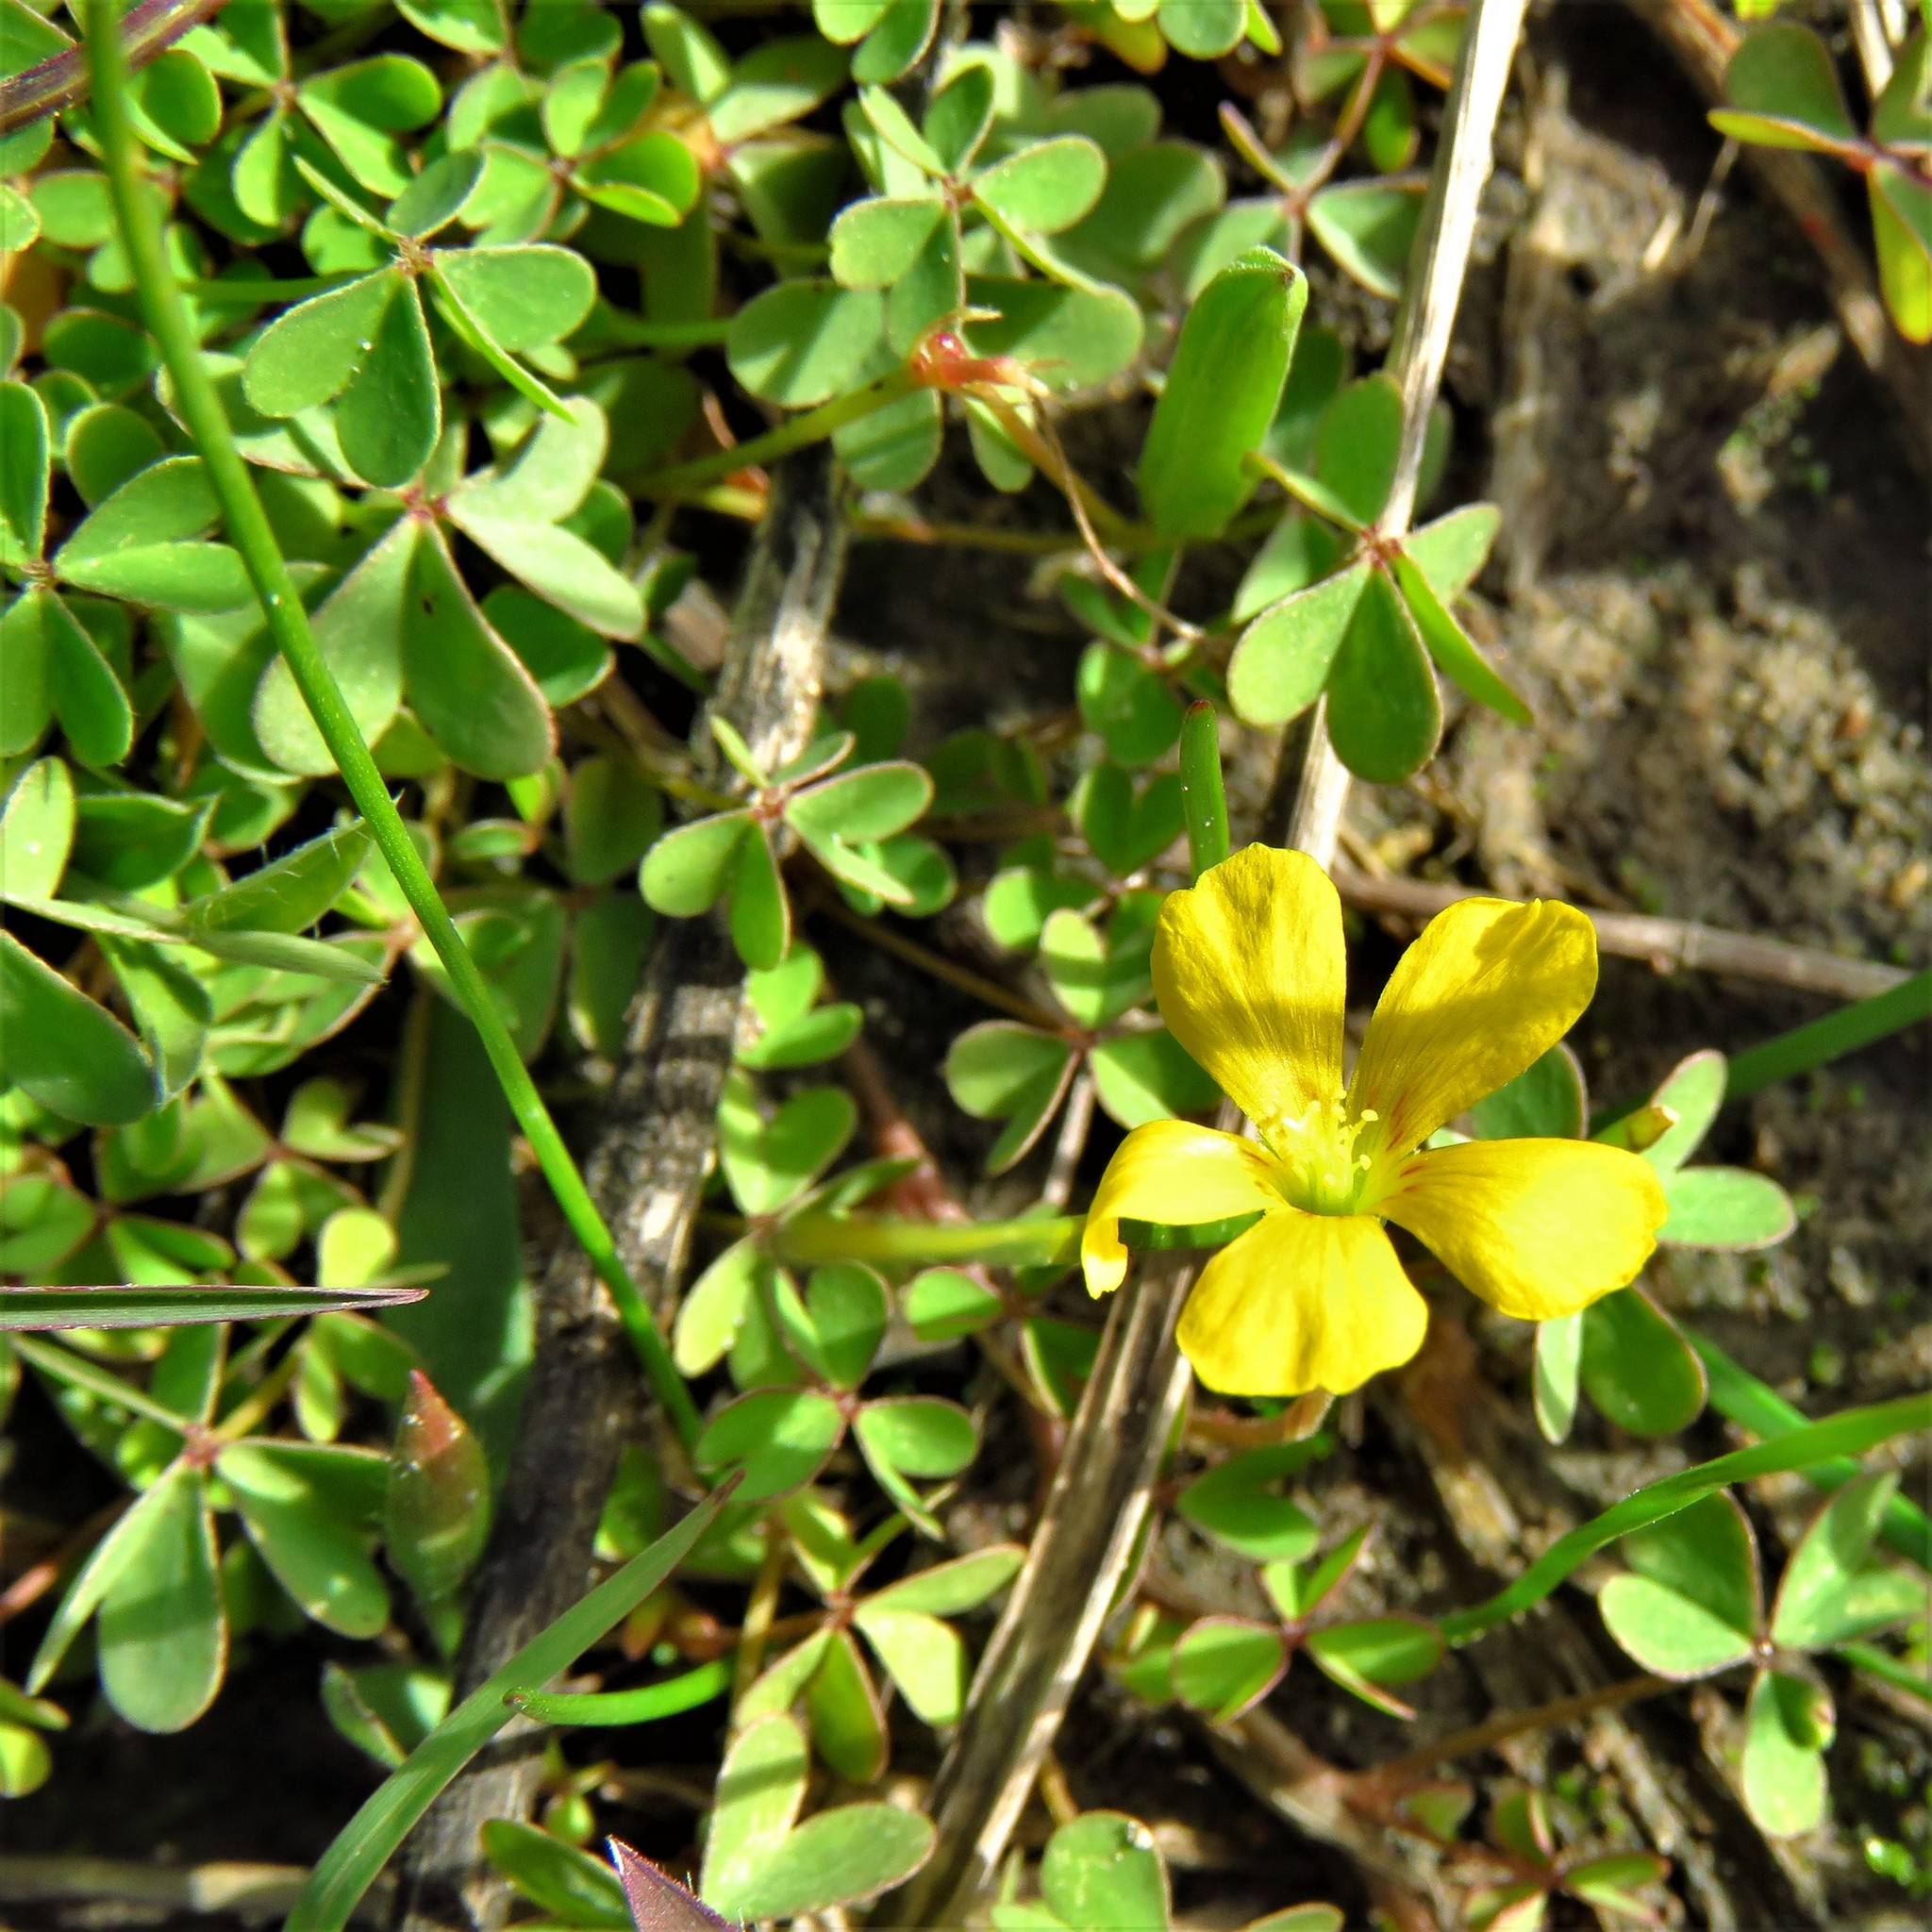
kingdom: Plantae
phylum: Tracheophyta
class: Magnoliopsida
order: Oxalidales
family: Oxalidaceae
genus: Oxalis
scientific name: Oxalis corniculata
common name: Procumbent yellow-sorrel
